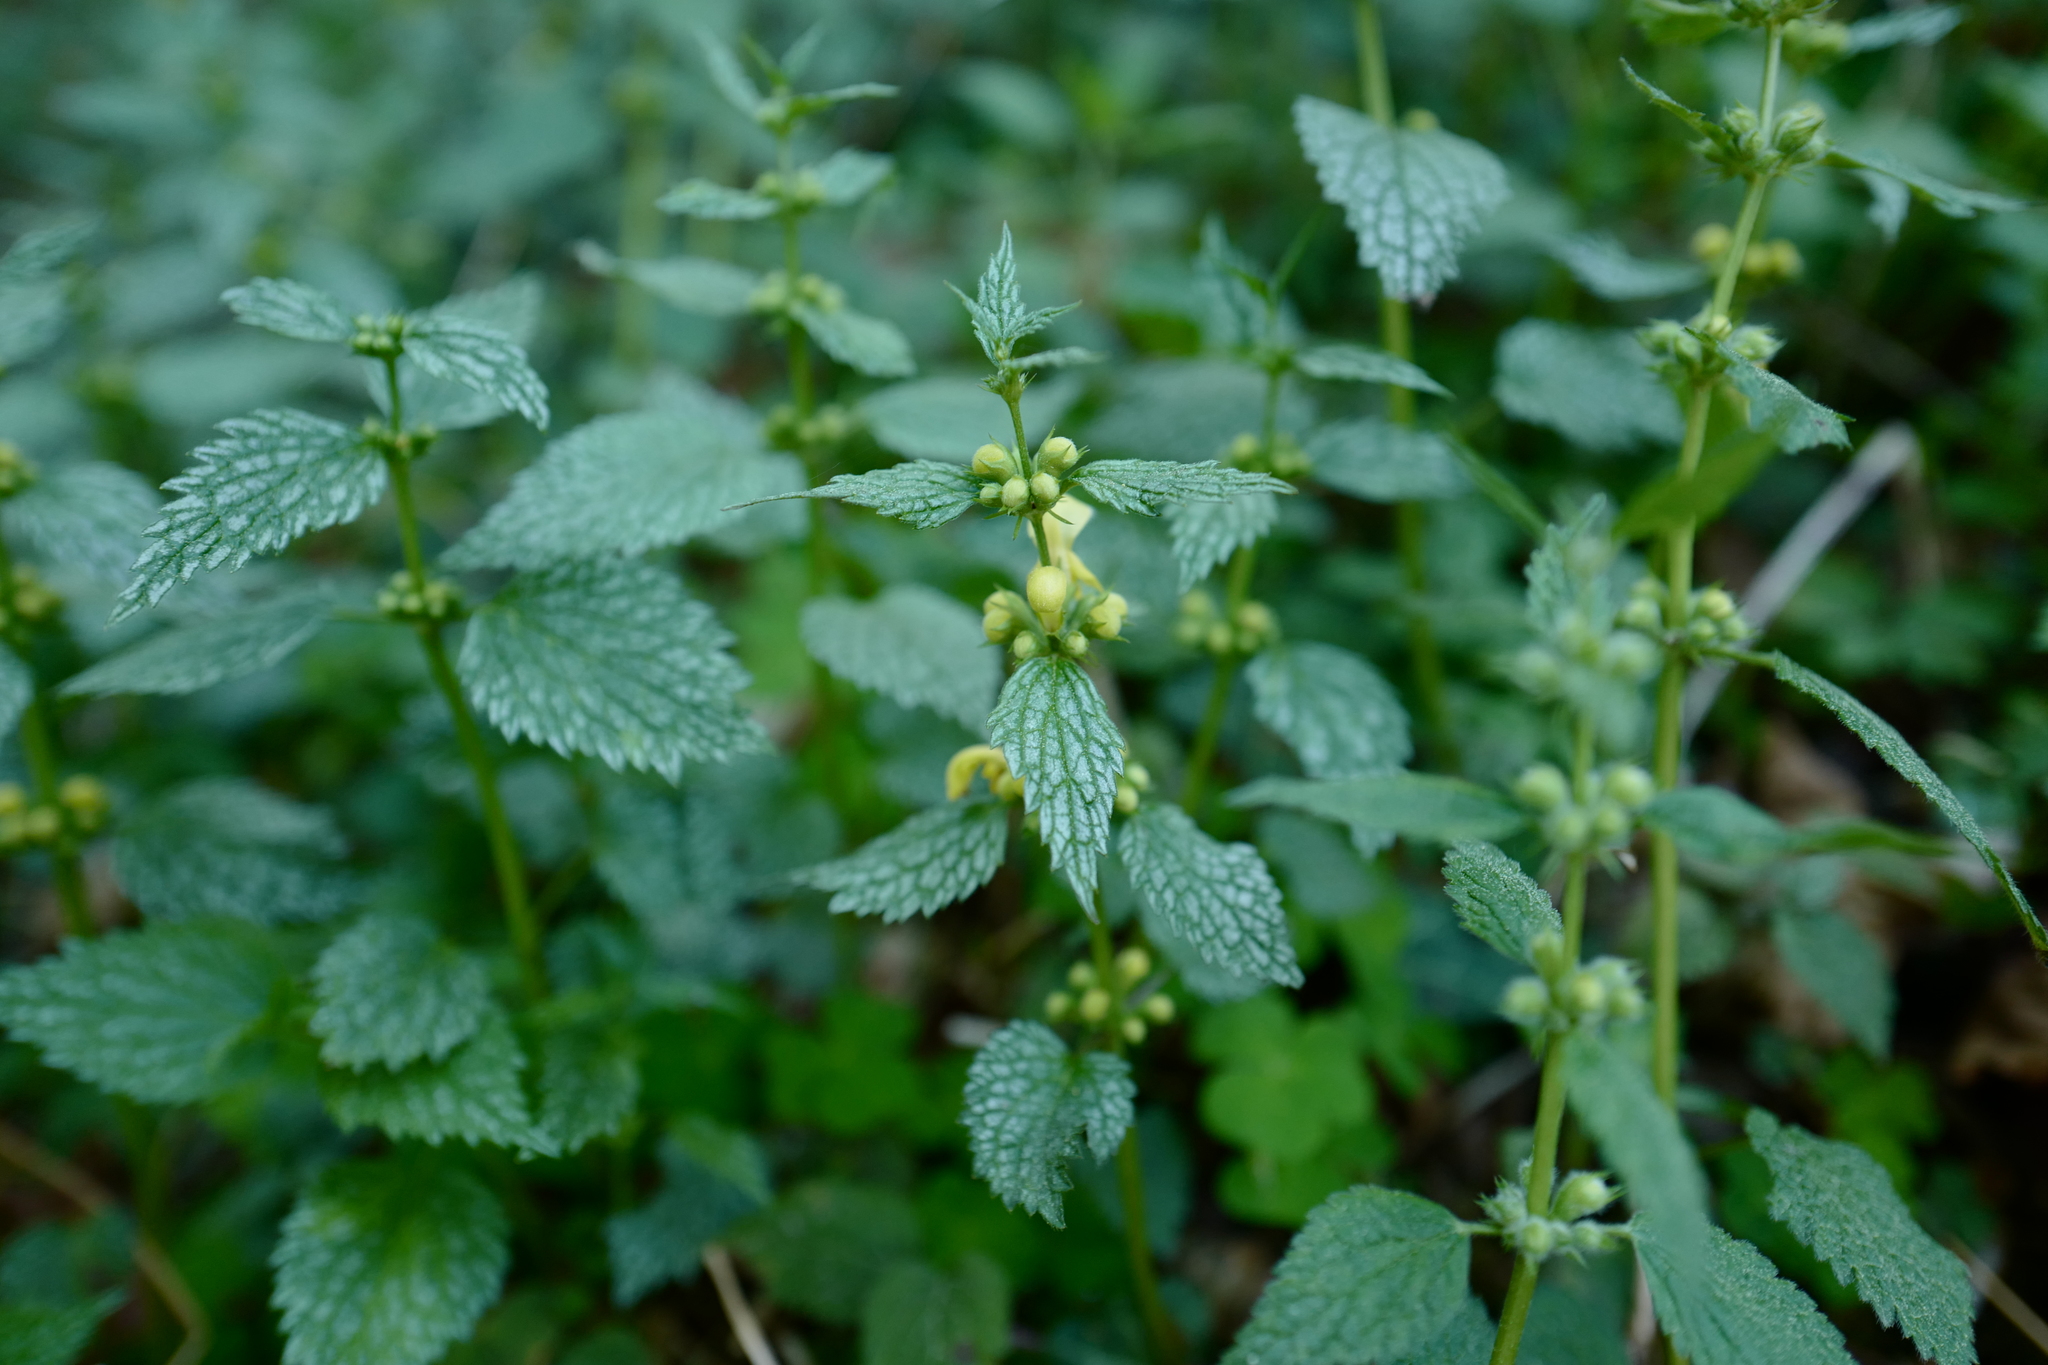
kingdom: Plantae
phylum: Tracheophyta
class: Magnoliopsida
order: Lamiales
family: Lamiaceae
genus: Lamium
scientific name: Lamium galeobdolon
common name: Yellow archangel
